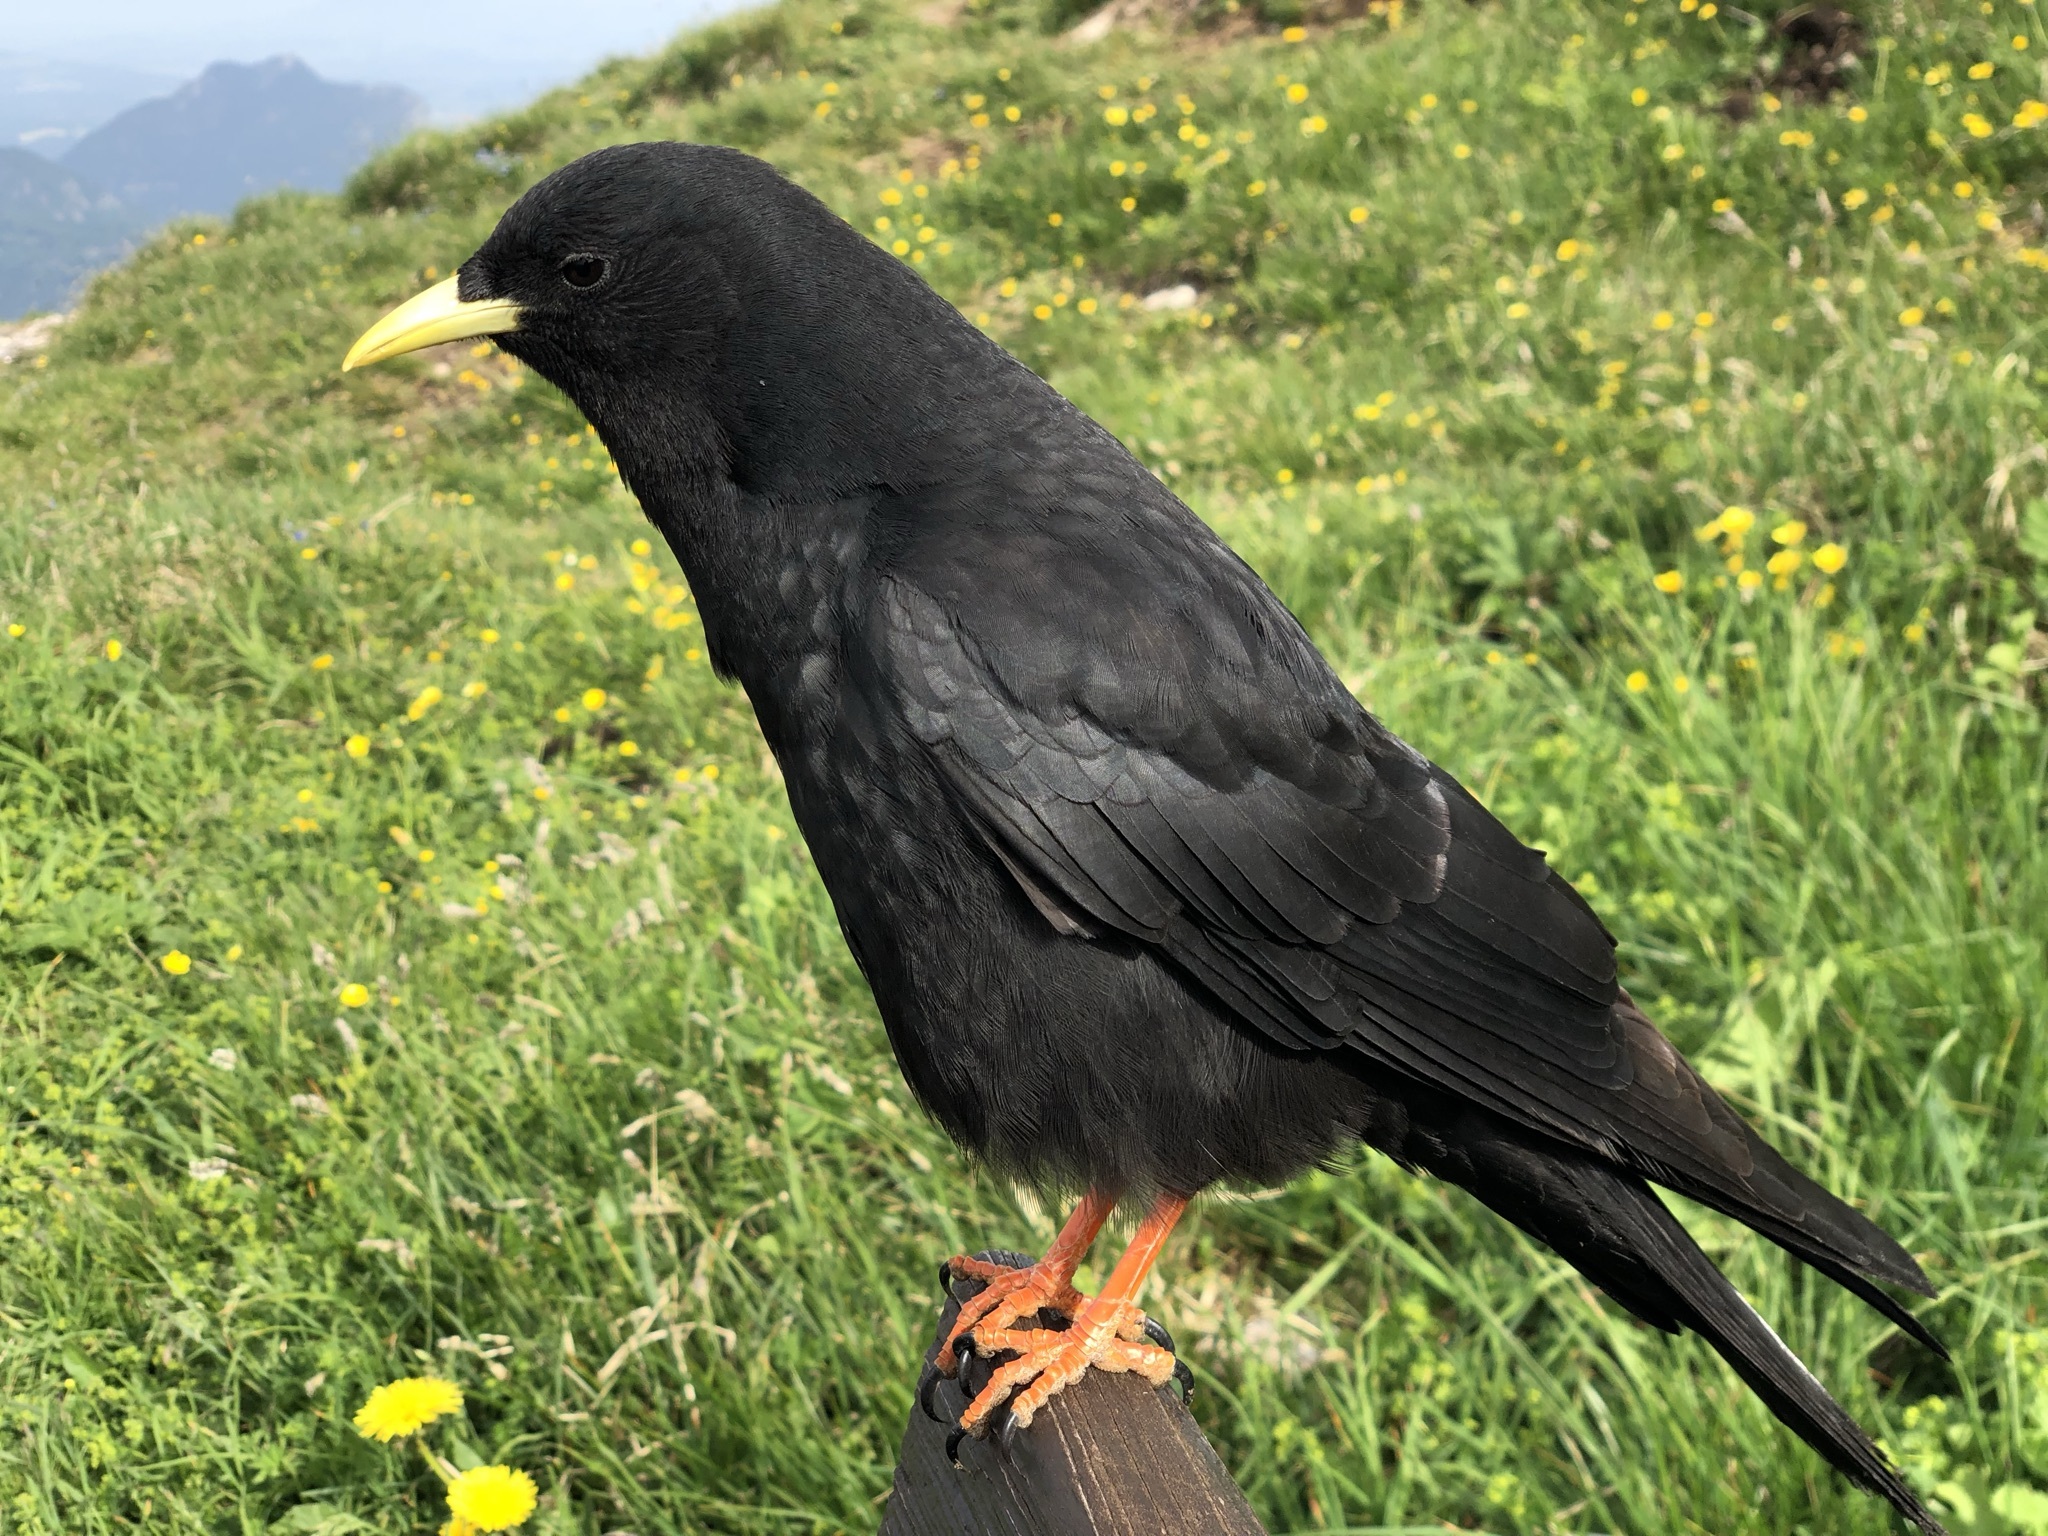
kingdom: Animalia
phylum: Chordata
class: Aves
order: Passeriformes
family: Corvidae
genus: Pyrrhocorax
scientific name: Pyrrhocorax graculus
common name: Alpine chough
